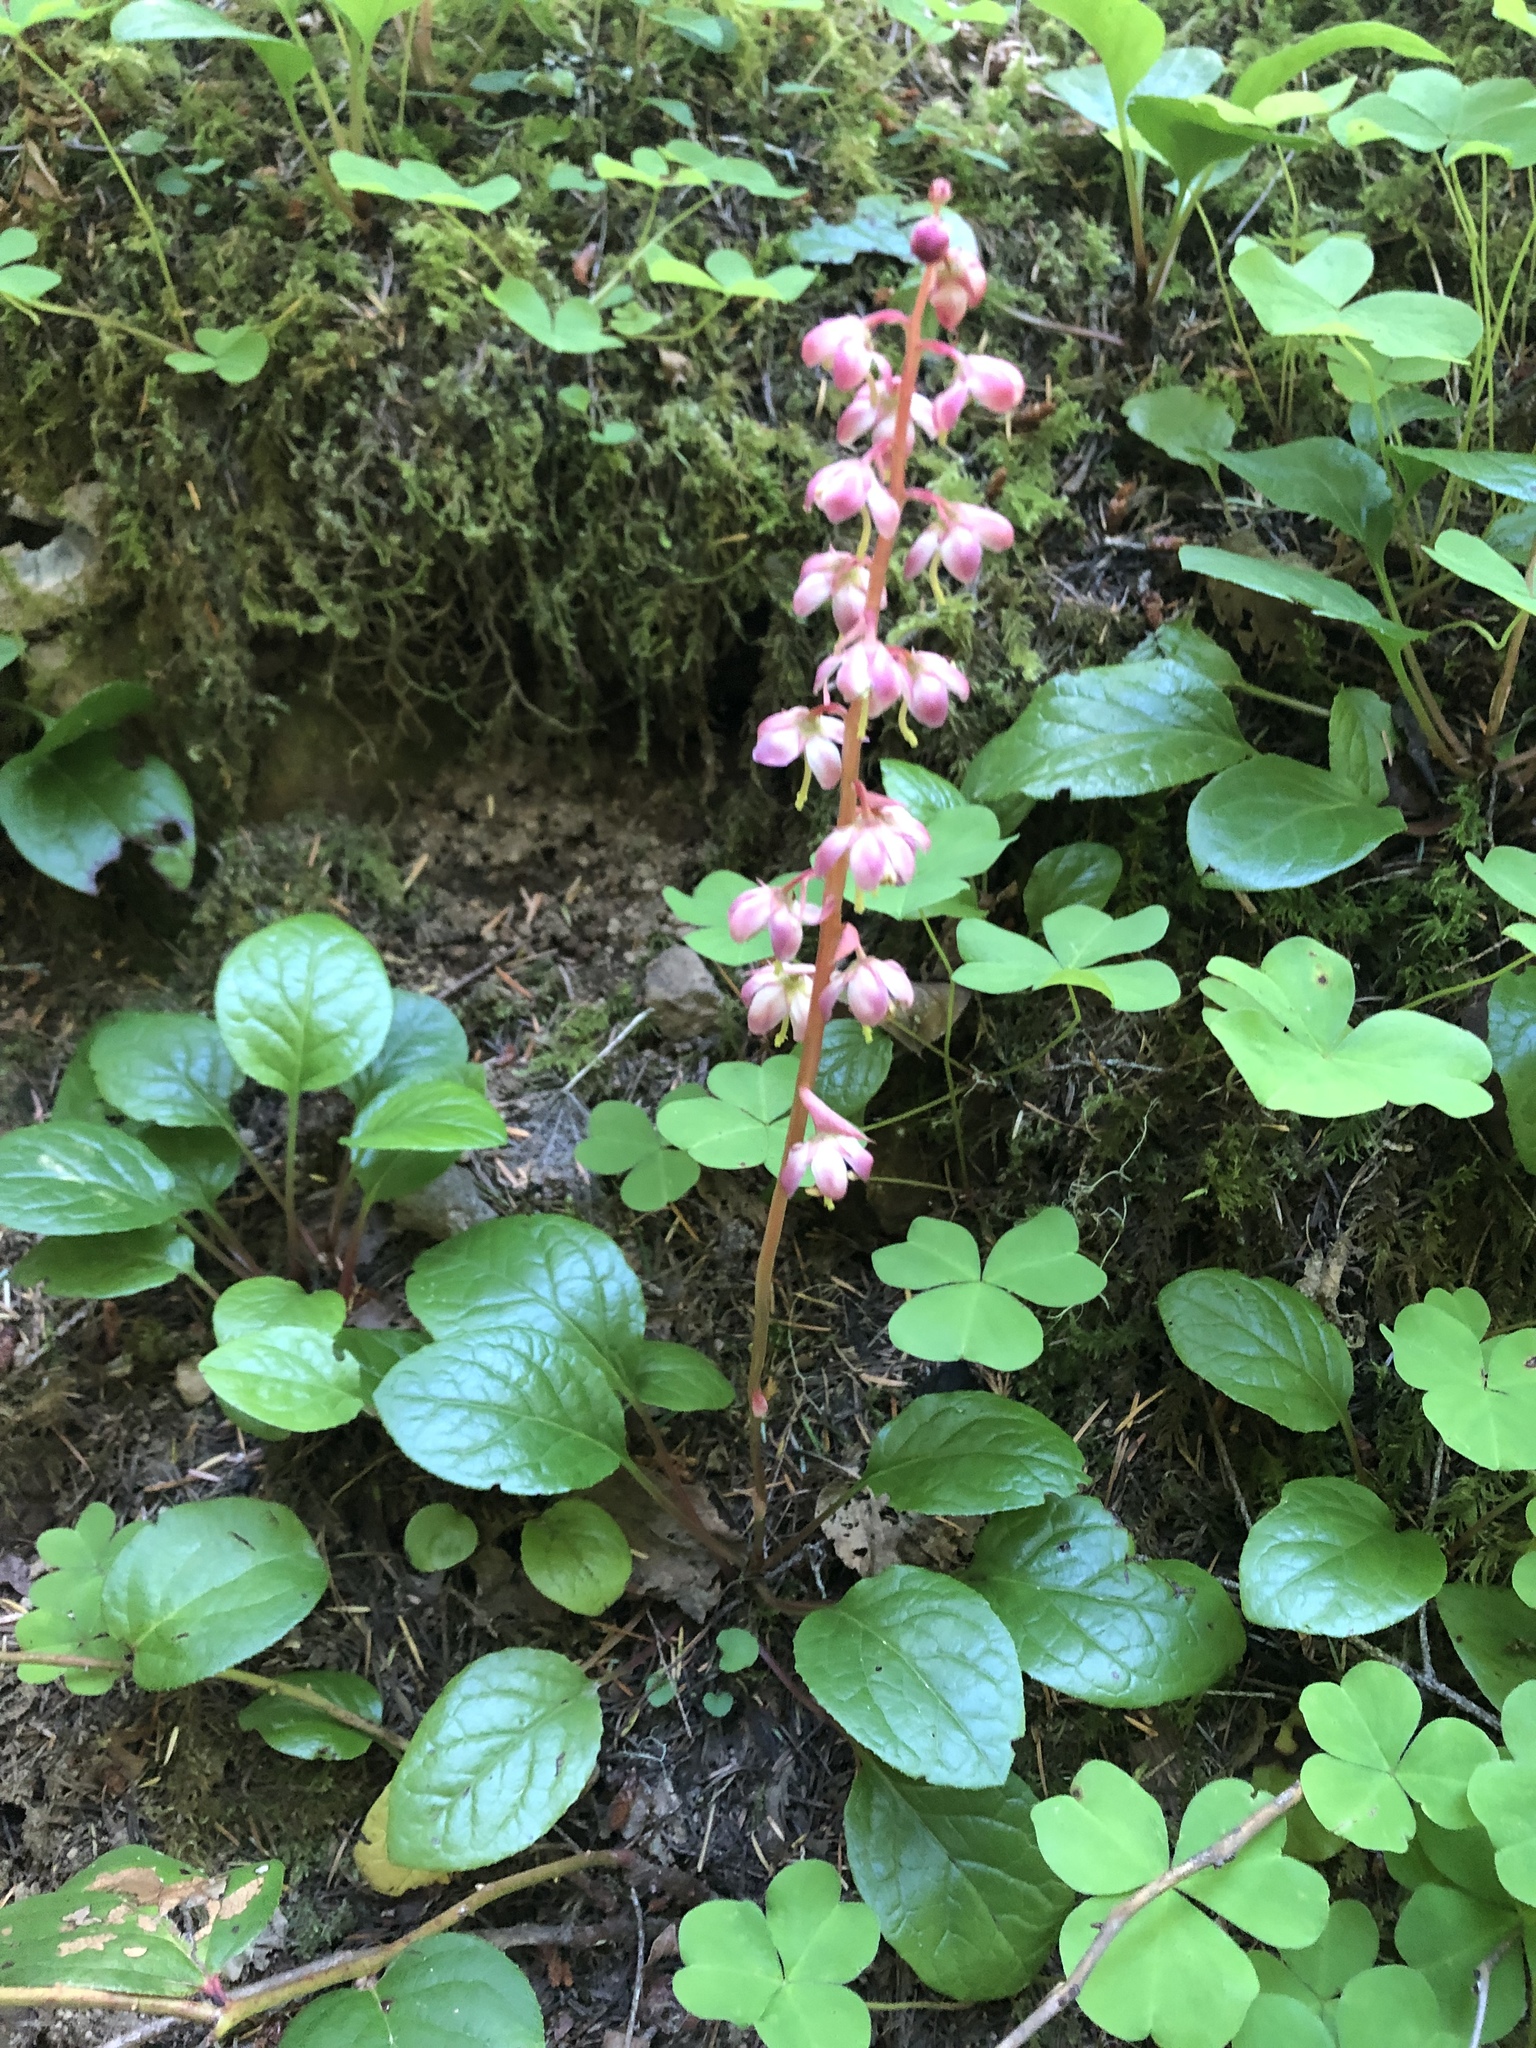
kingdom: Plantae
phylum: Tracheophyta
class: Magnoliopsida
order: Ericales
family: Ericaceae
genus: Pyrola
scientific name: Pyrola asarifolia
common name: Bog wintergreen
